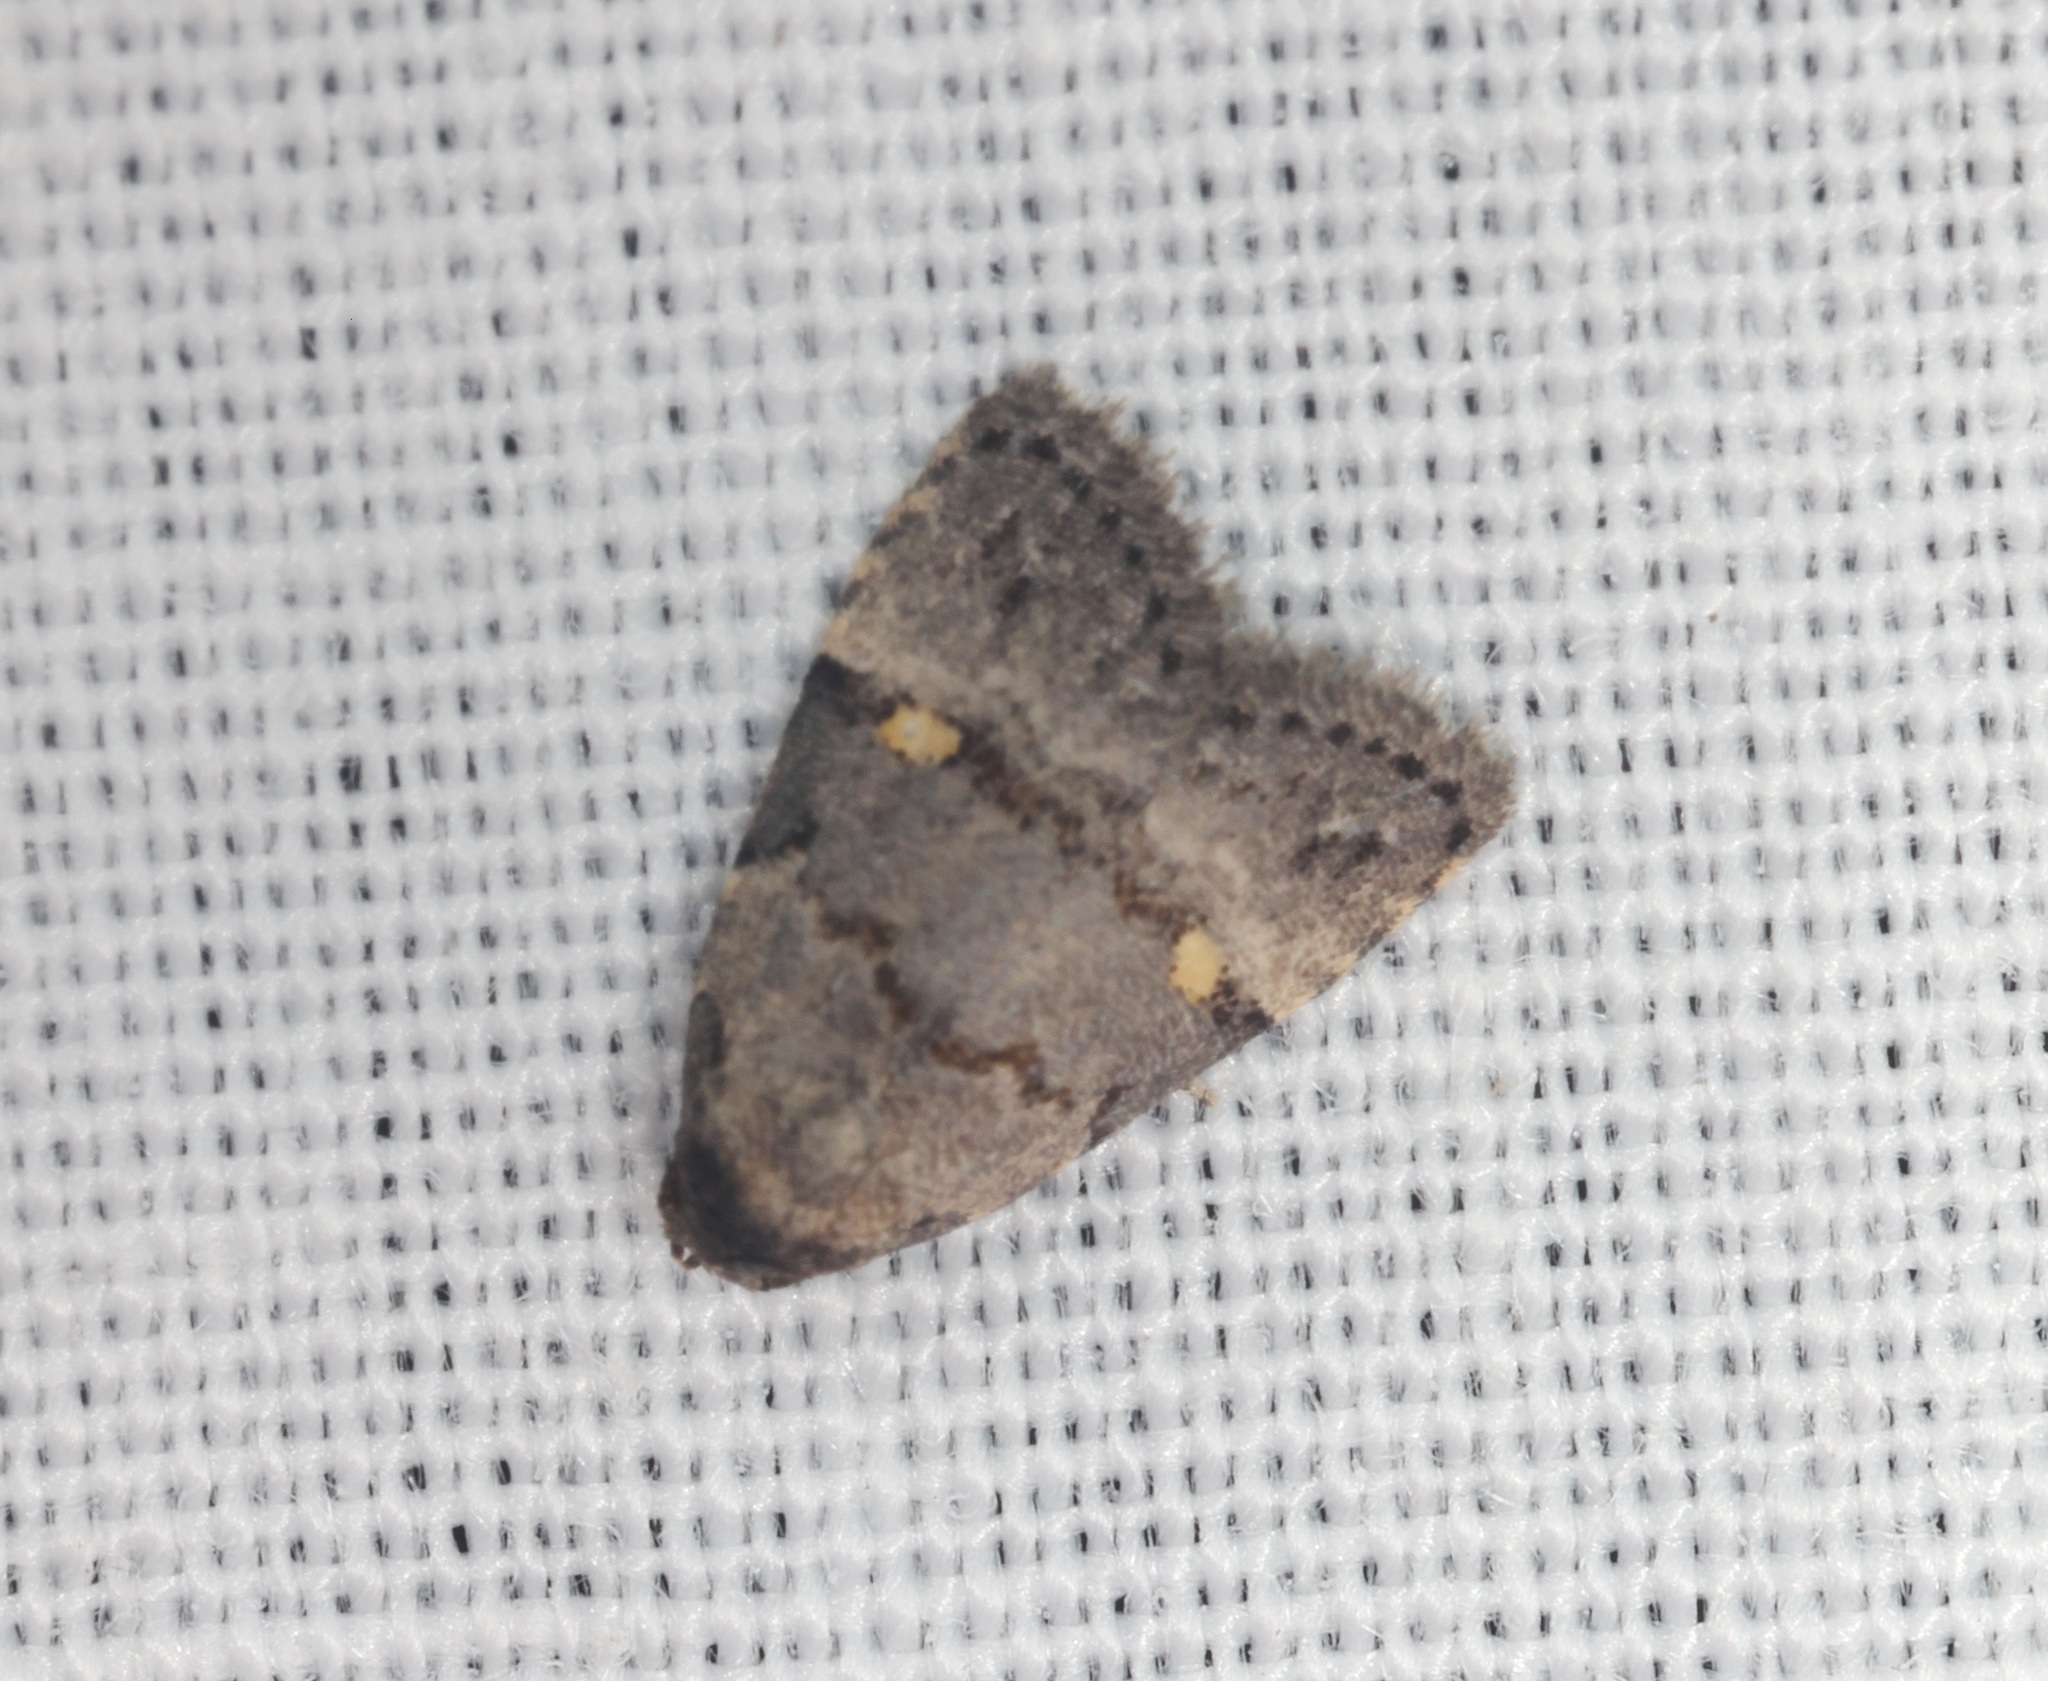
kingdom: Animalia
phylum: Arthropoda
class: Insecta
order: Lepidoptera
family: Erebidae
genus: Fustius
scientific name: Fustius sterlingi
